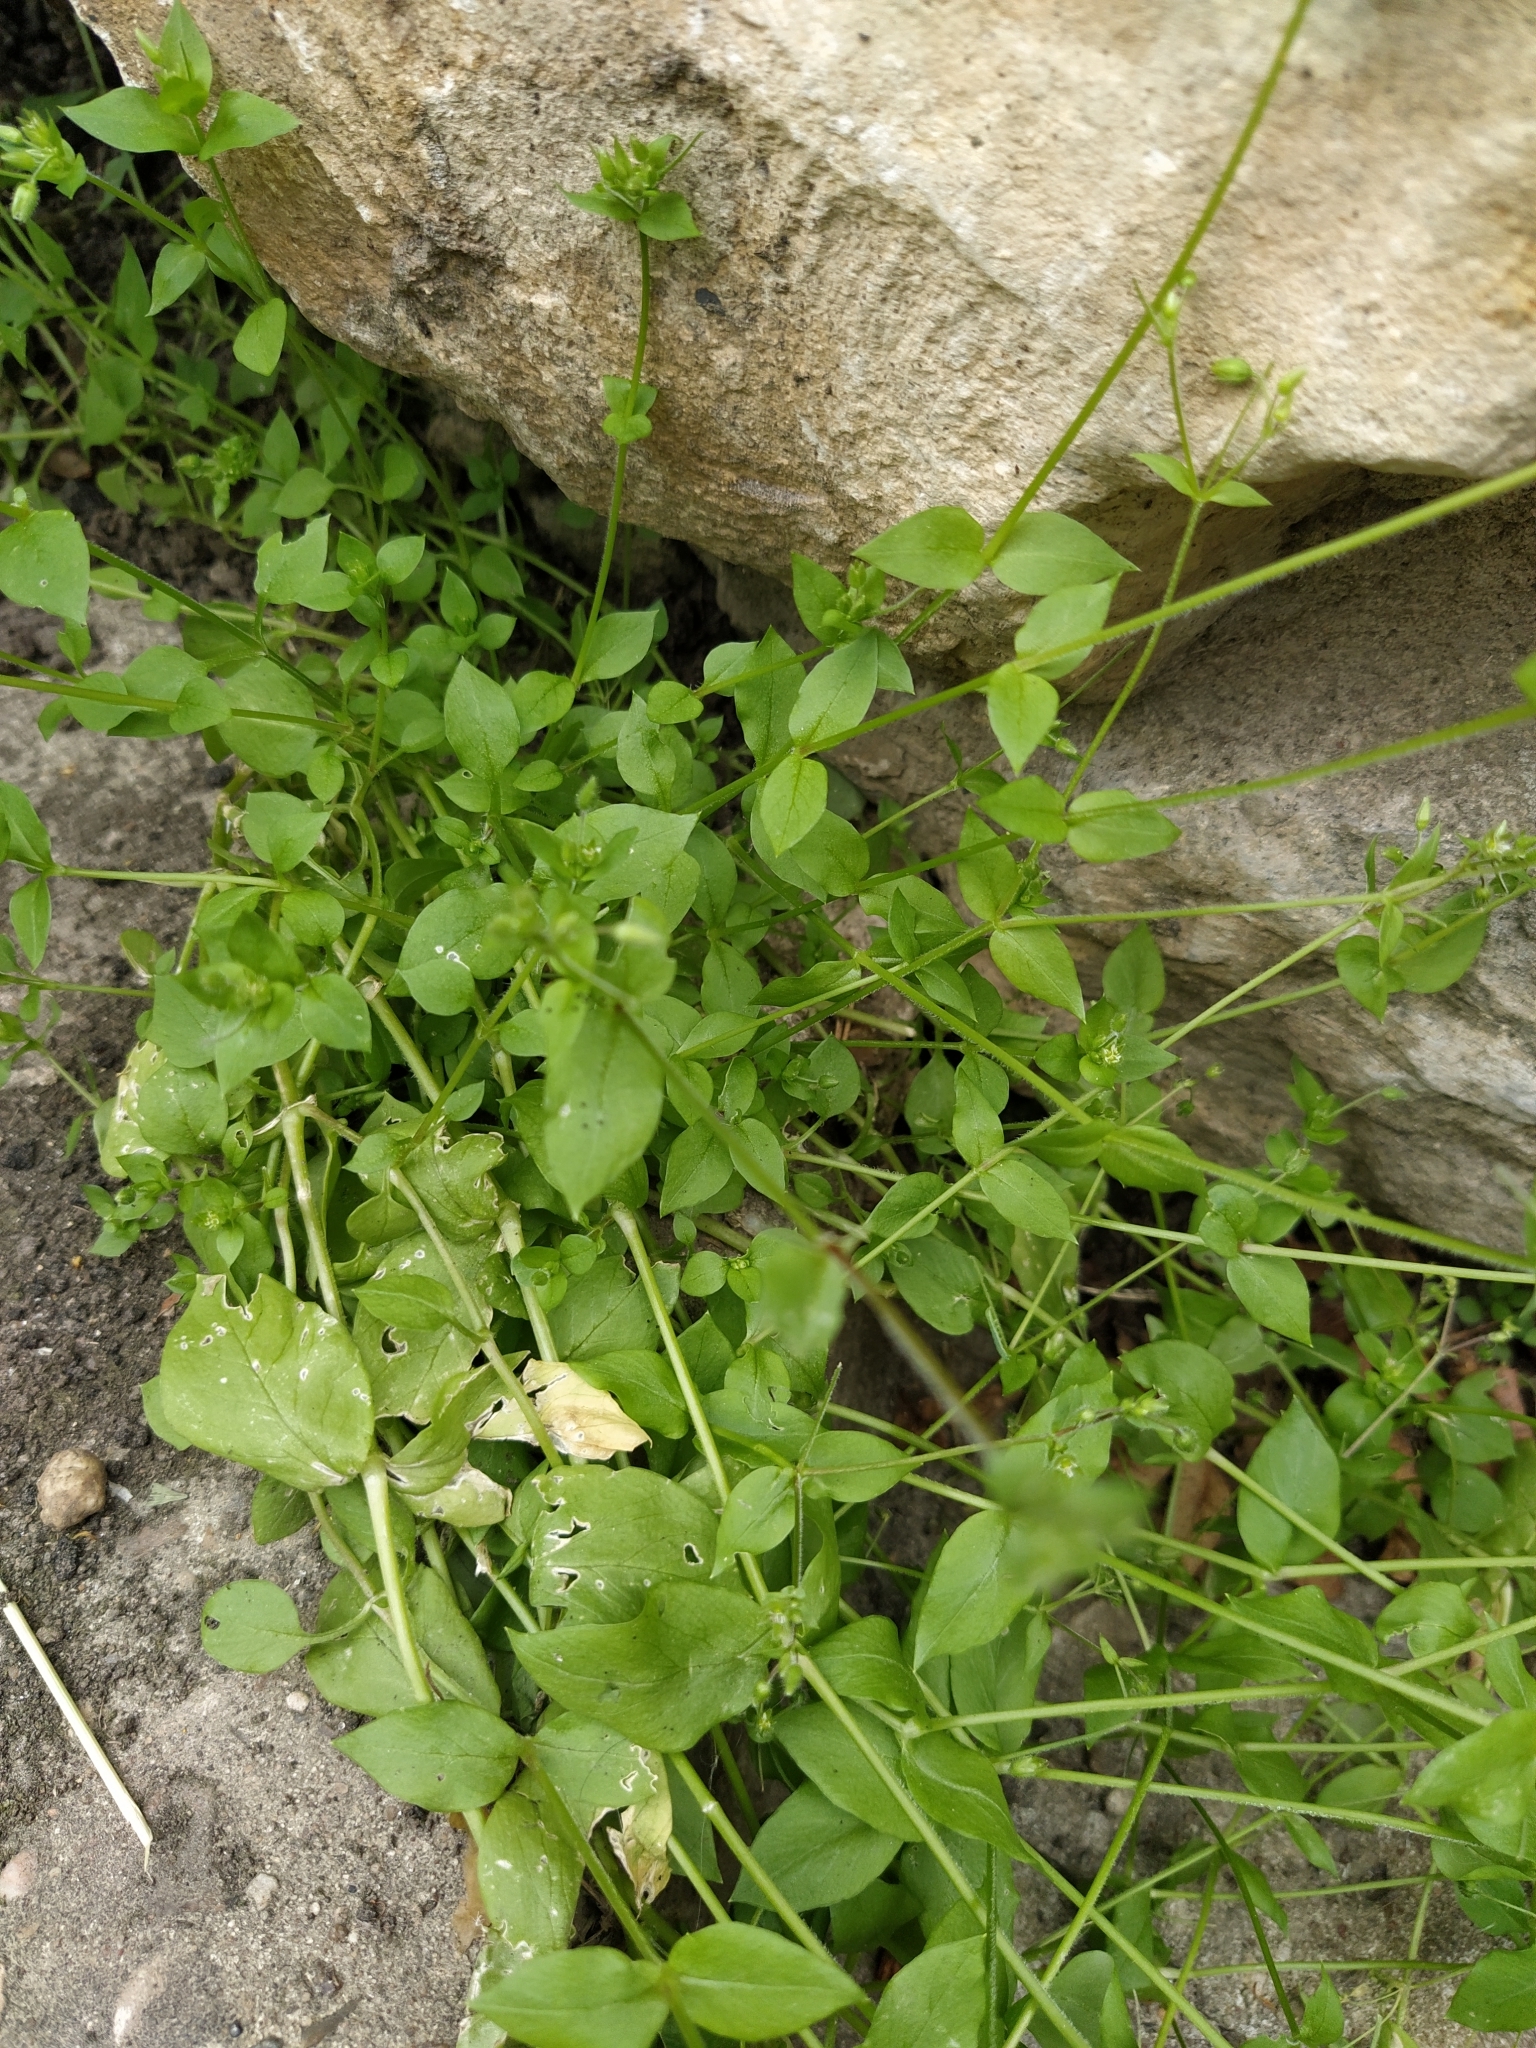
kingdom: Plantae
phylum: Tracheophyta
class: Magnoliopsida
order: Caryophyllales
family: Caryophyllaceae
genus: Stellaria
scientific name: Stellaria media
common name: Common chickweed
